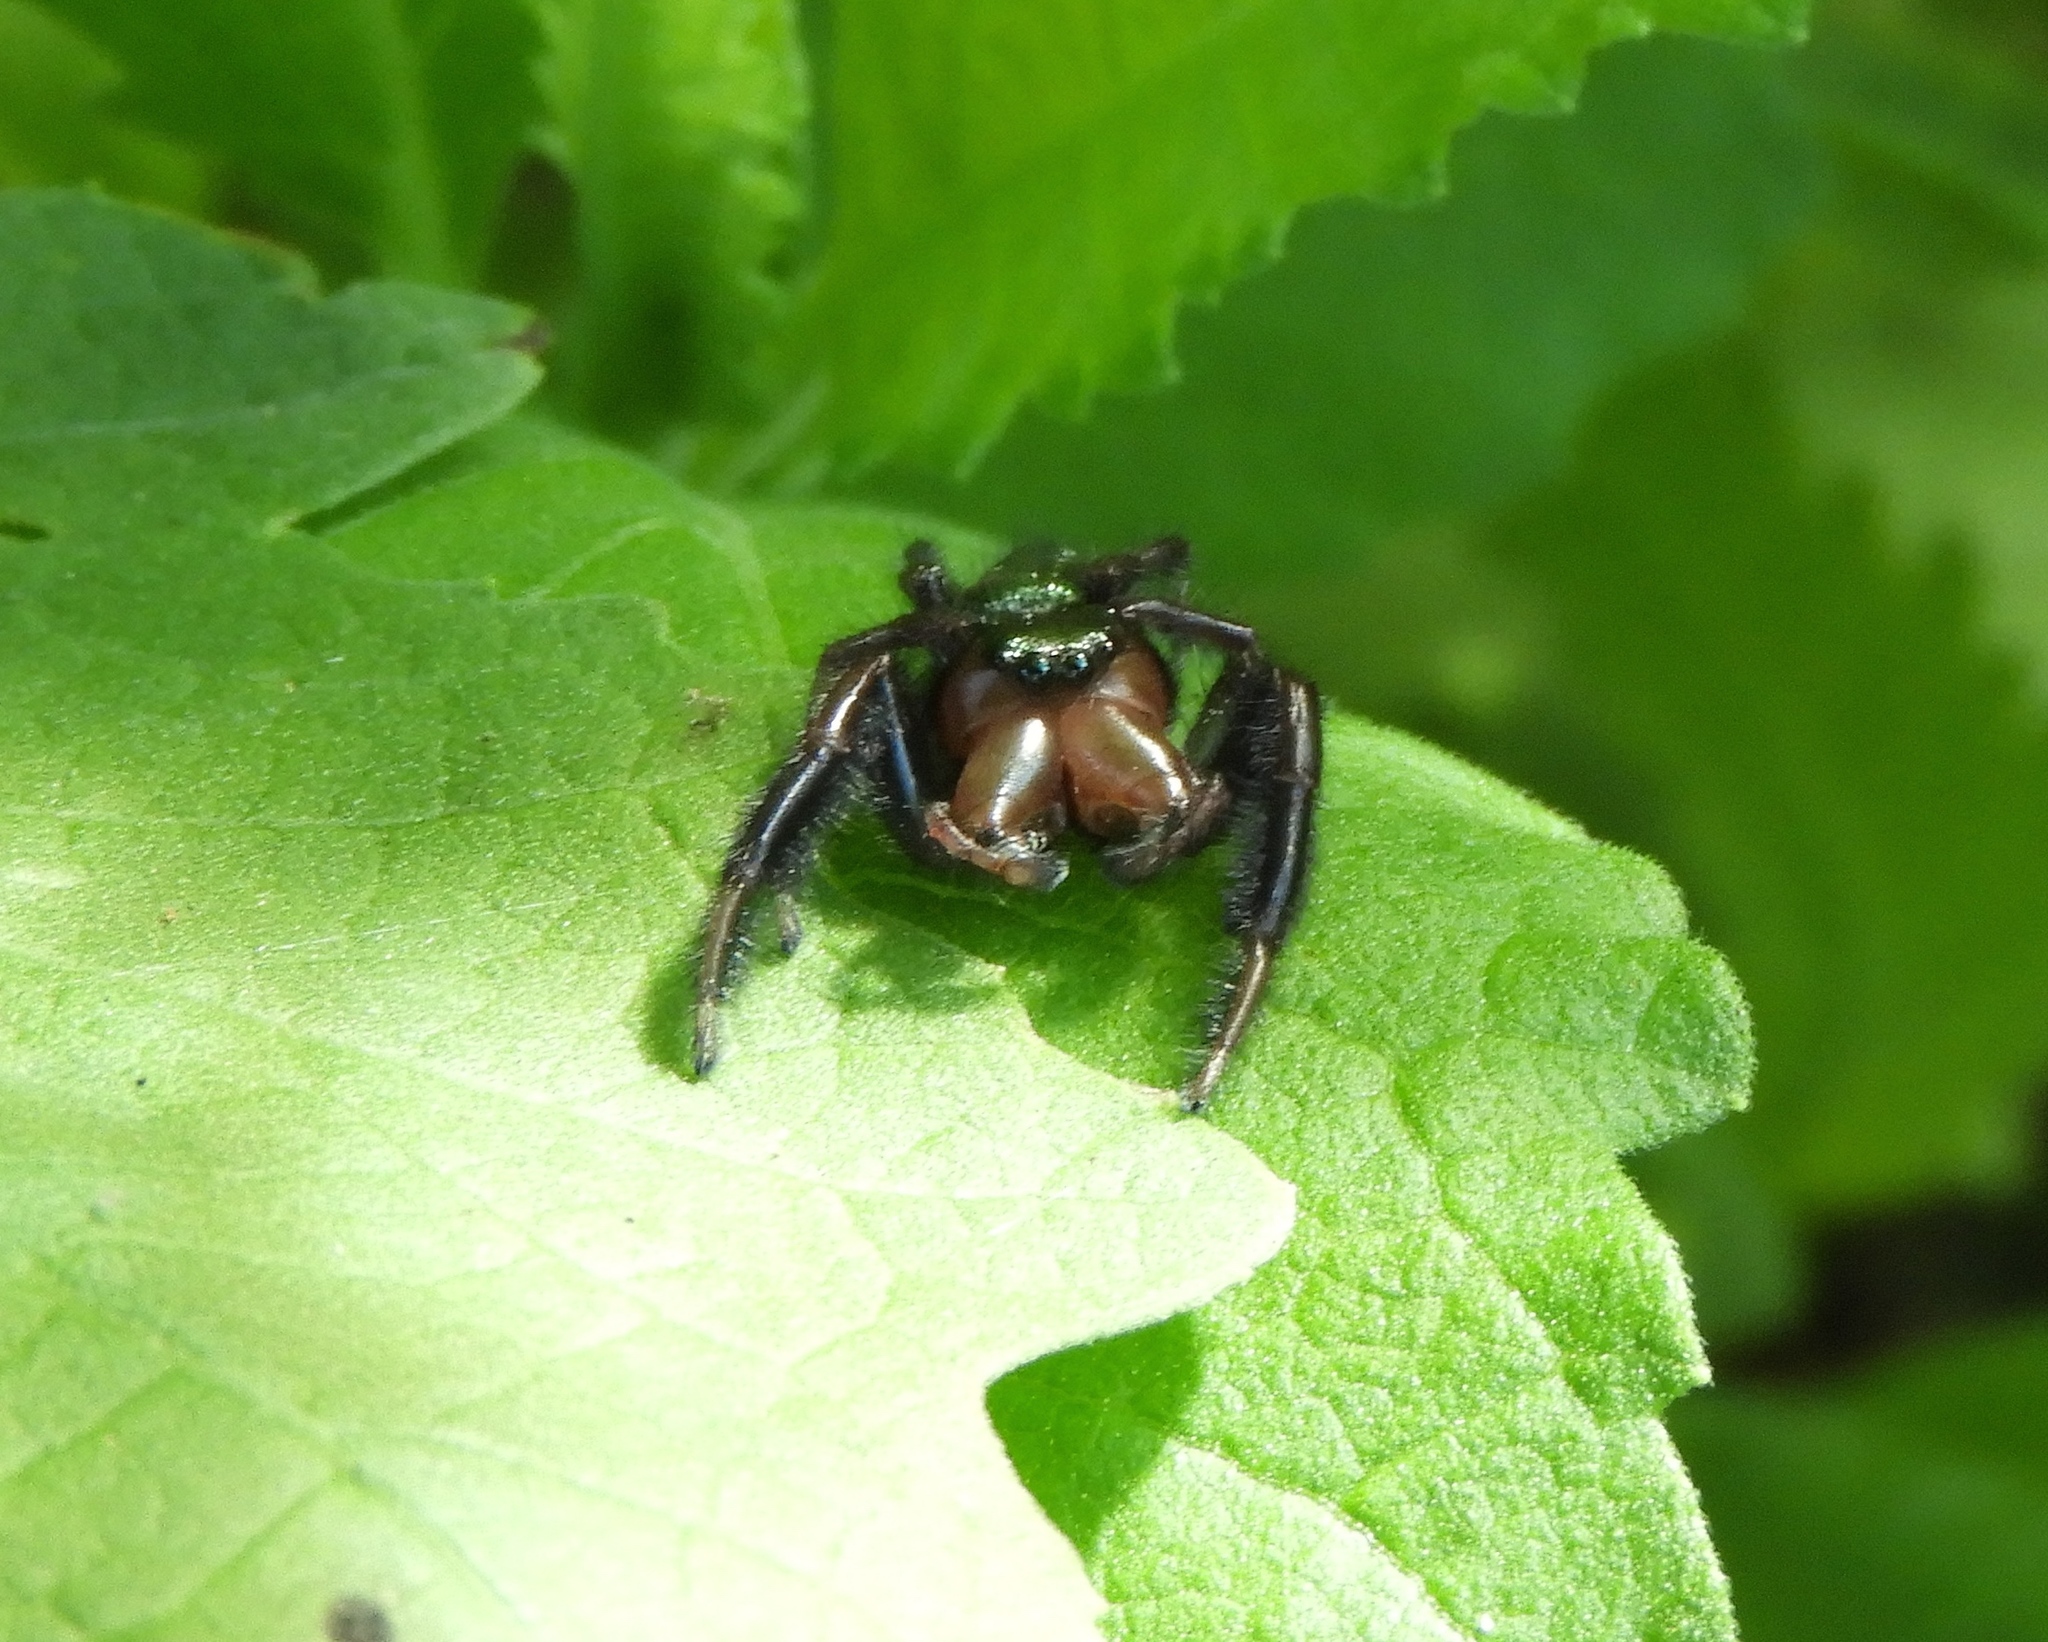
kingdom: Animalia
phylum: Arthropoda
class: Arachnida
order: Araneae
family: Salticidae
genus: Paraphidippus
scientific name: Paraphidippus fartilis
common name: Jumping spiders
